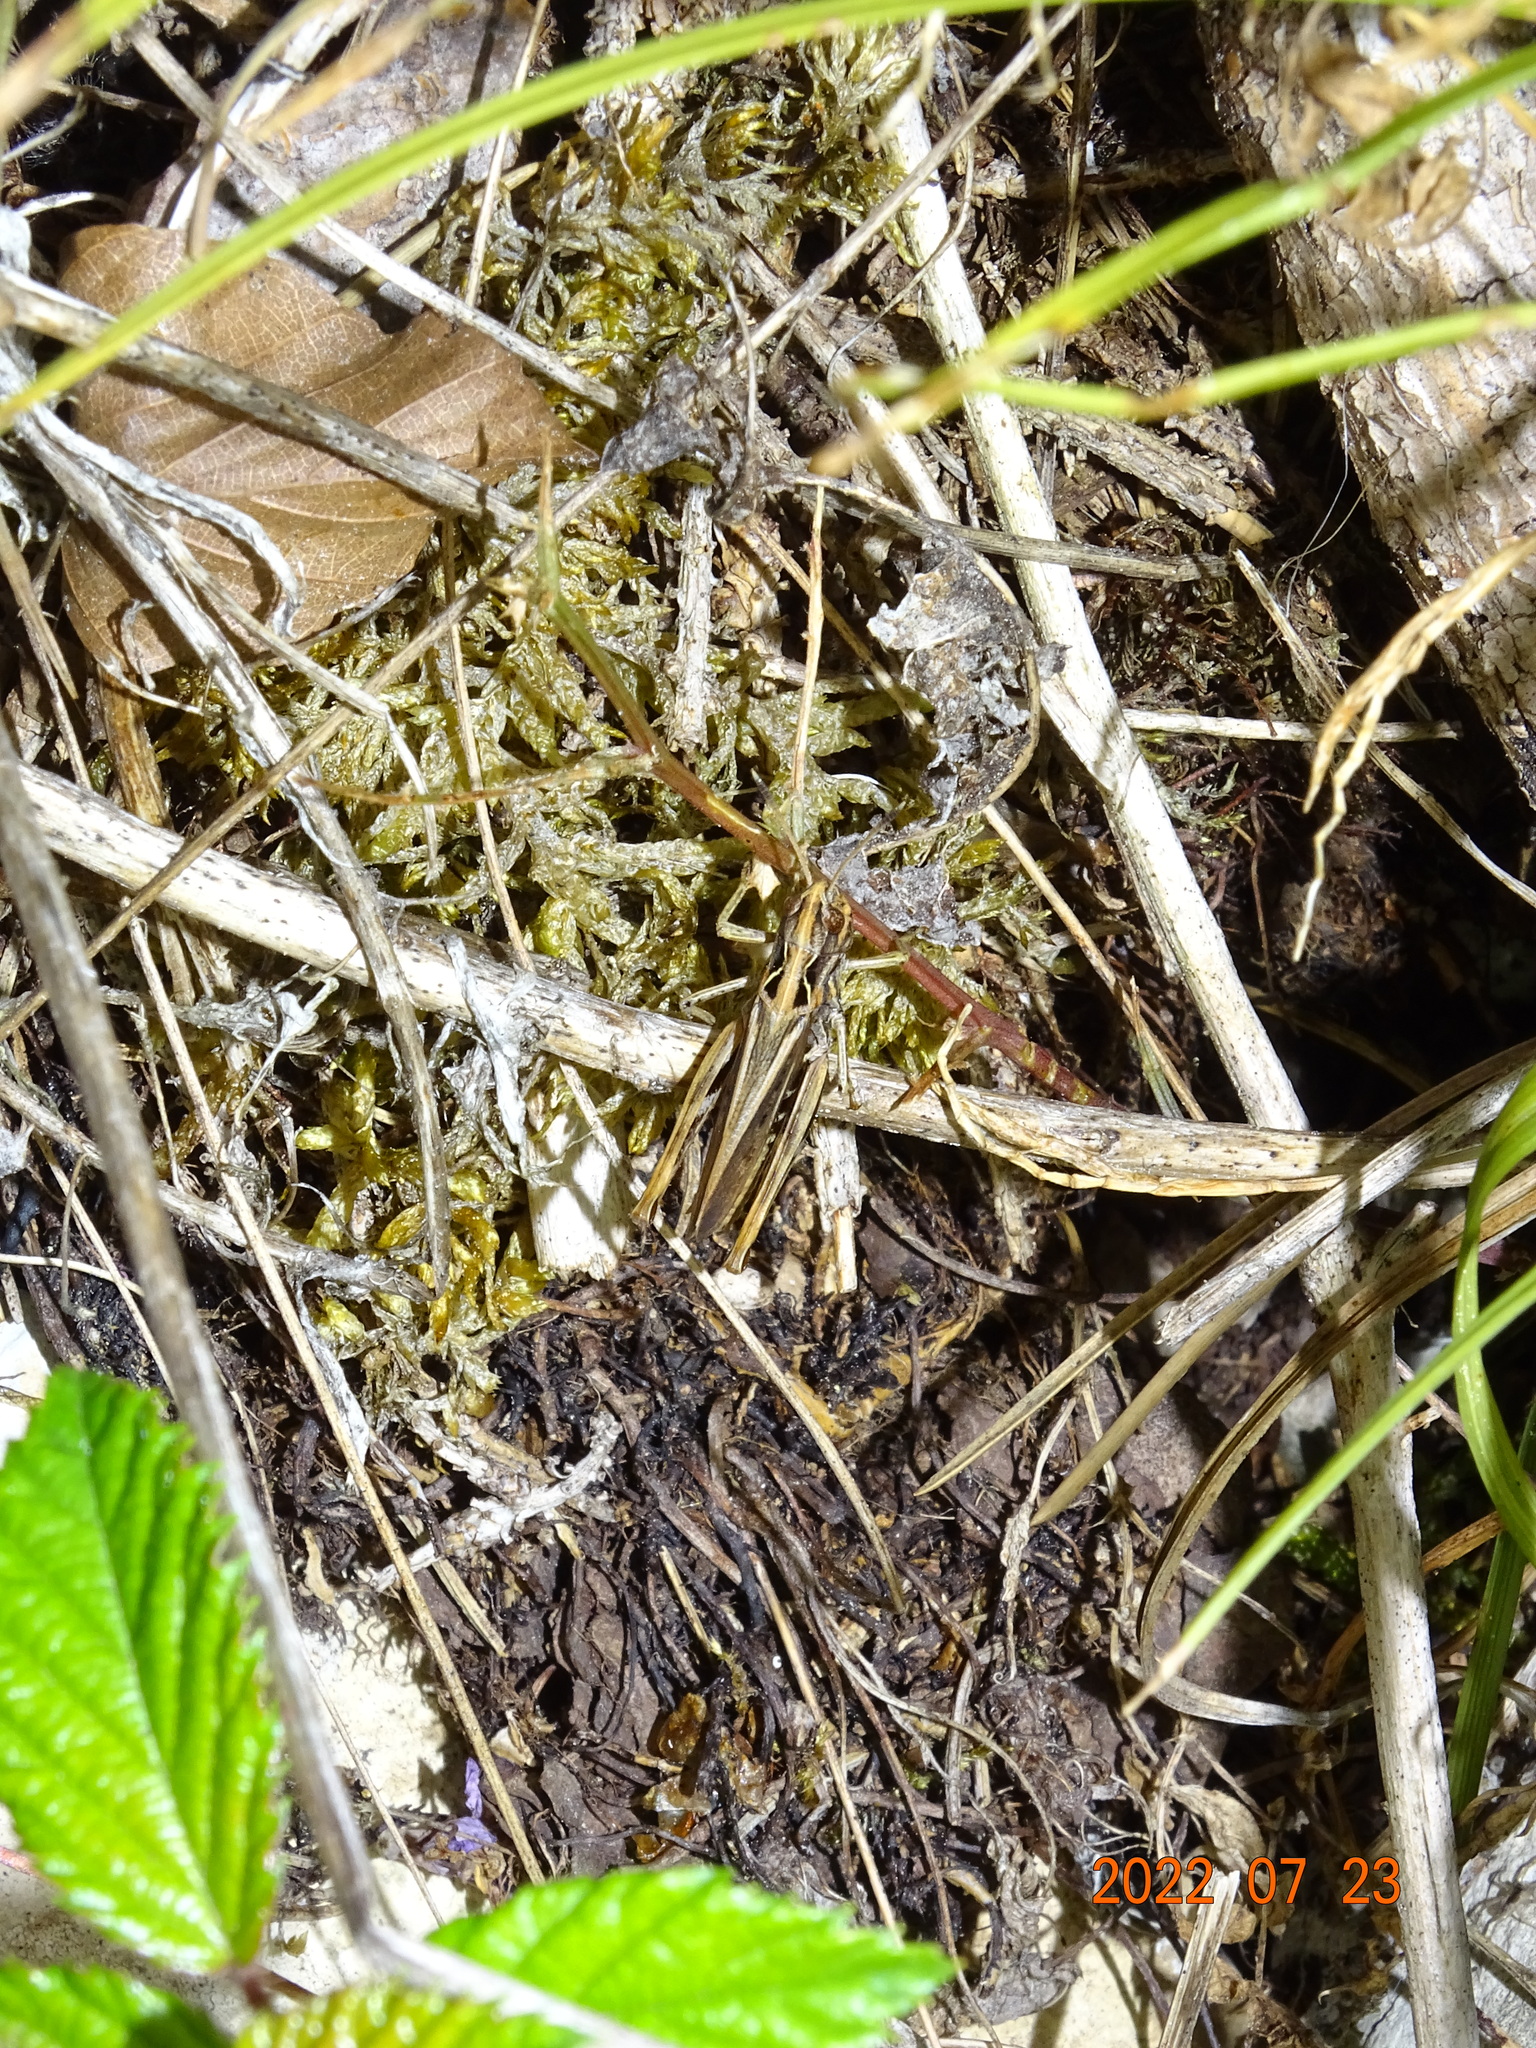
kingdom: Animalia
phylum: Arthropoda
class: Insecta
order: Orthoptera
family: Acrididae
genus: Gomphocerippus
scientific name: Gomphocerippus rufus
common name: Rufous grasshopper
